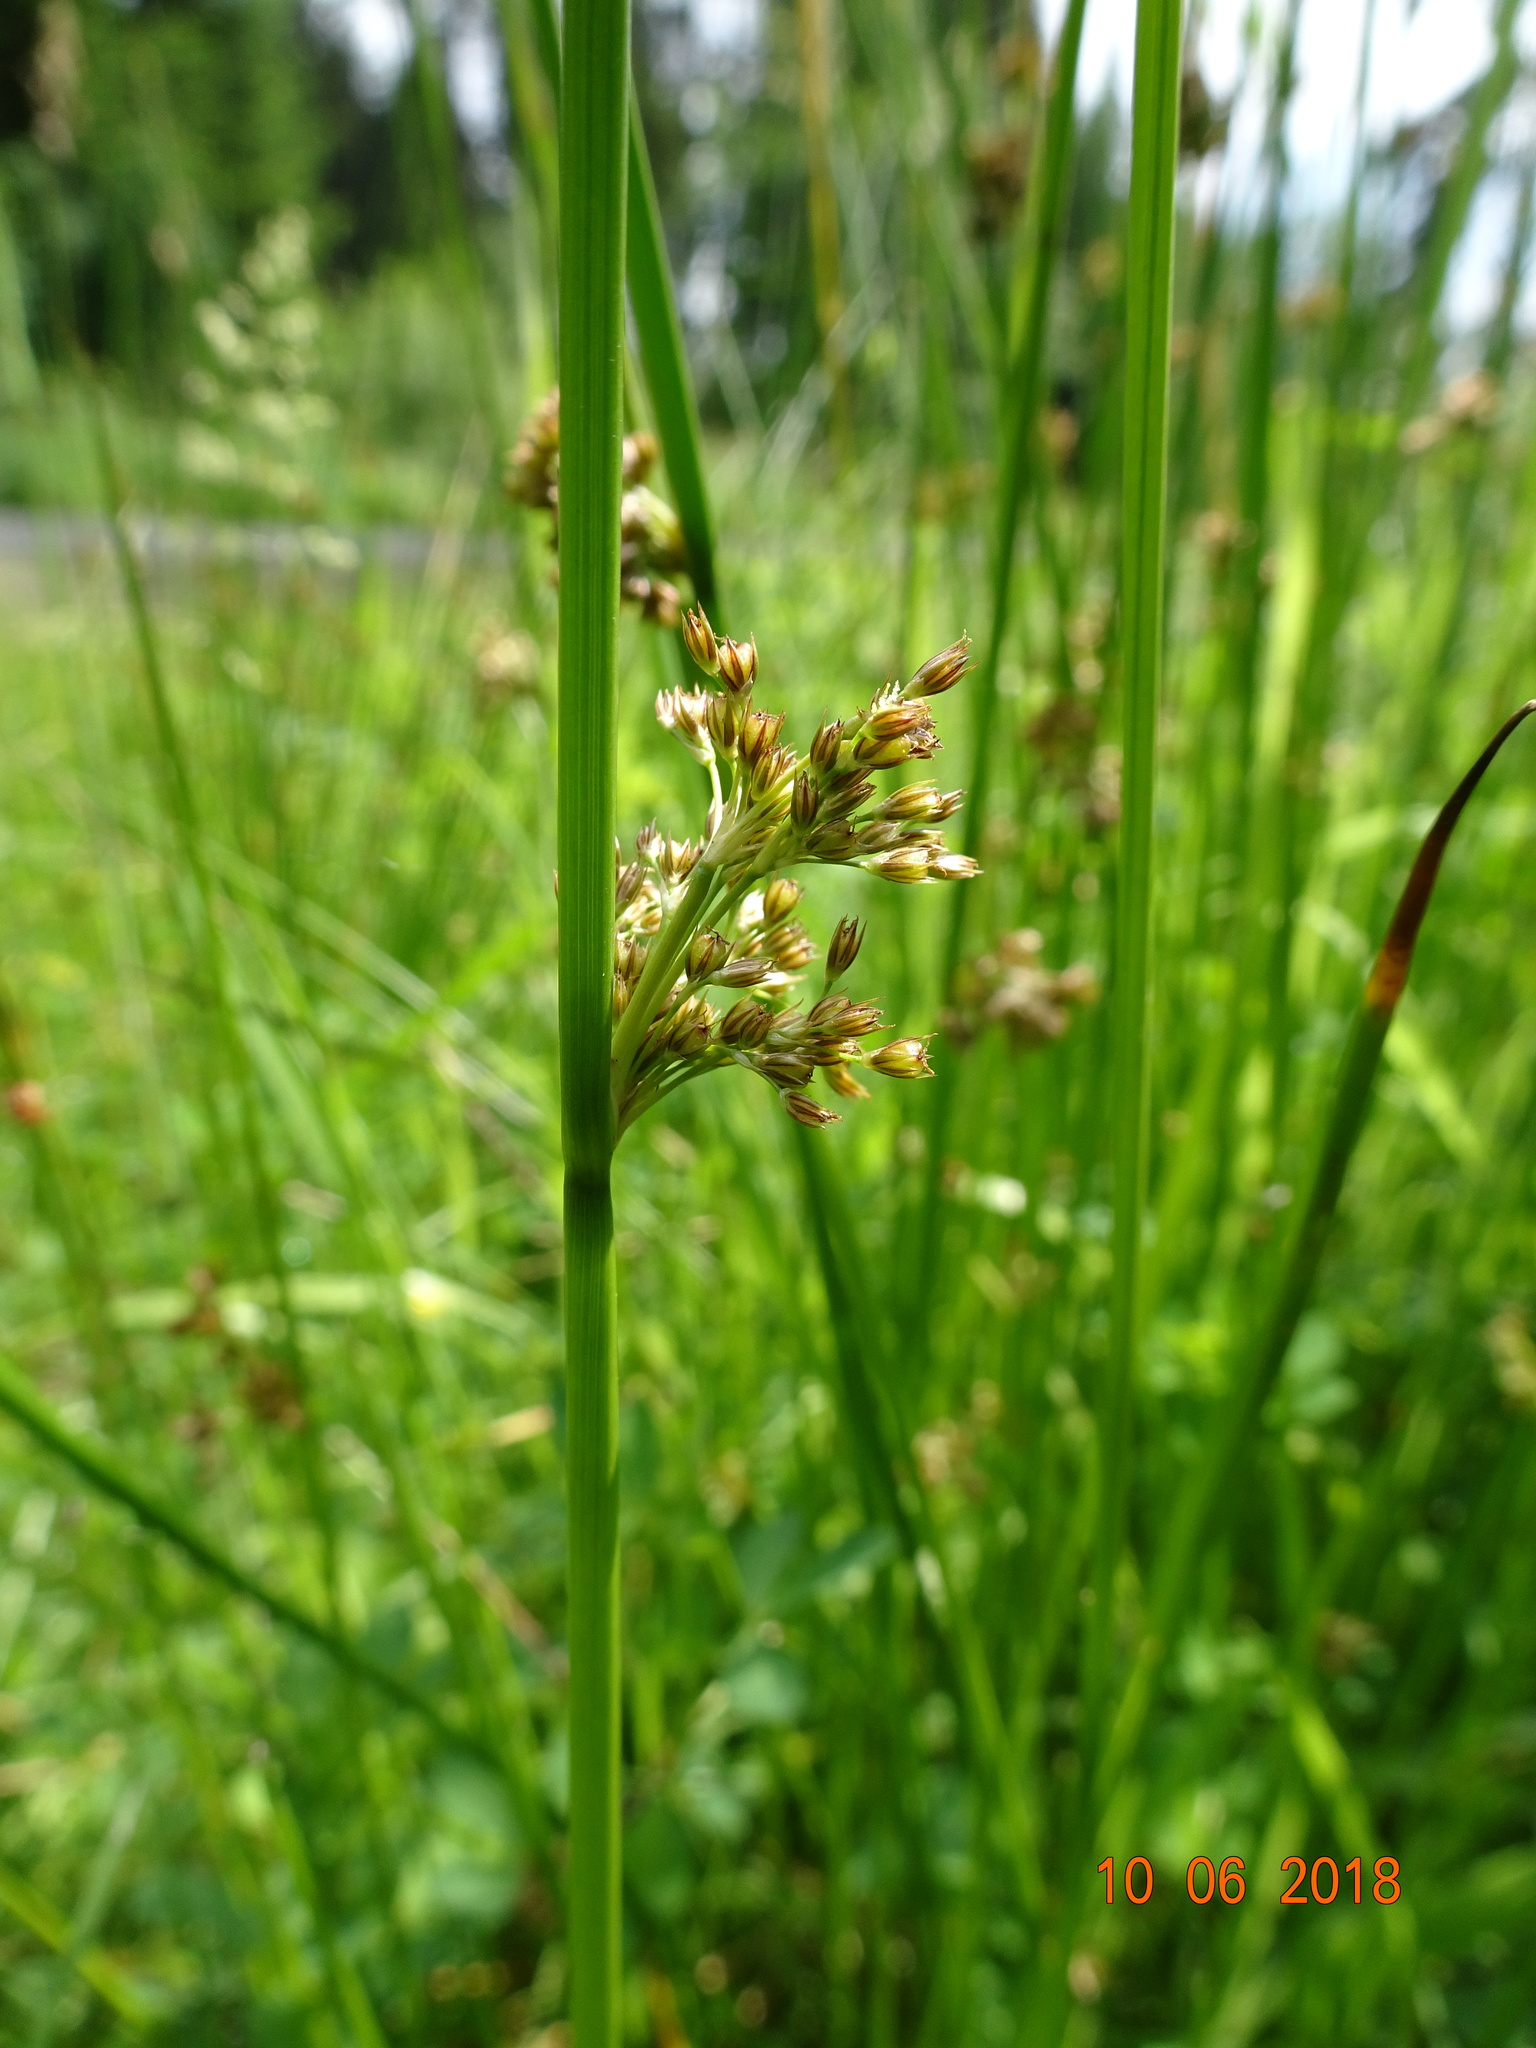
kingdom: Plantae
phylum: Tracheophyta
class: Liliopsida
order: Poales
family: Juncaceae
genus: Juncus
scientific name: Juncus effusus
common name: Soft rush
